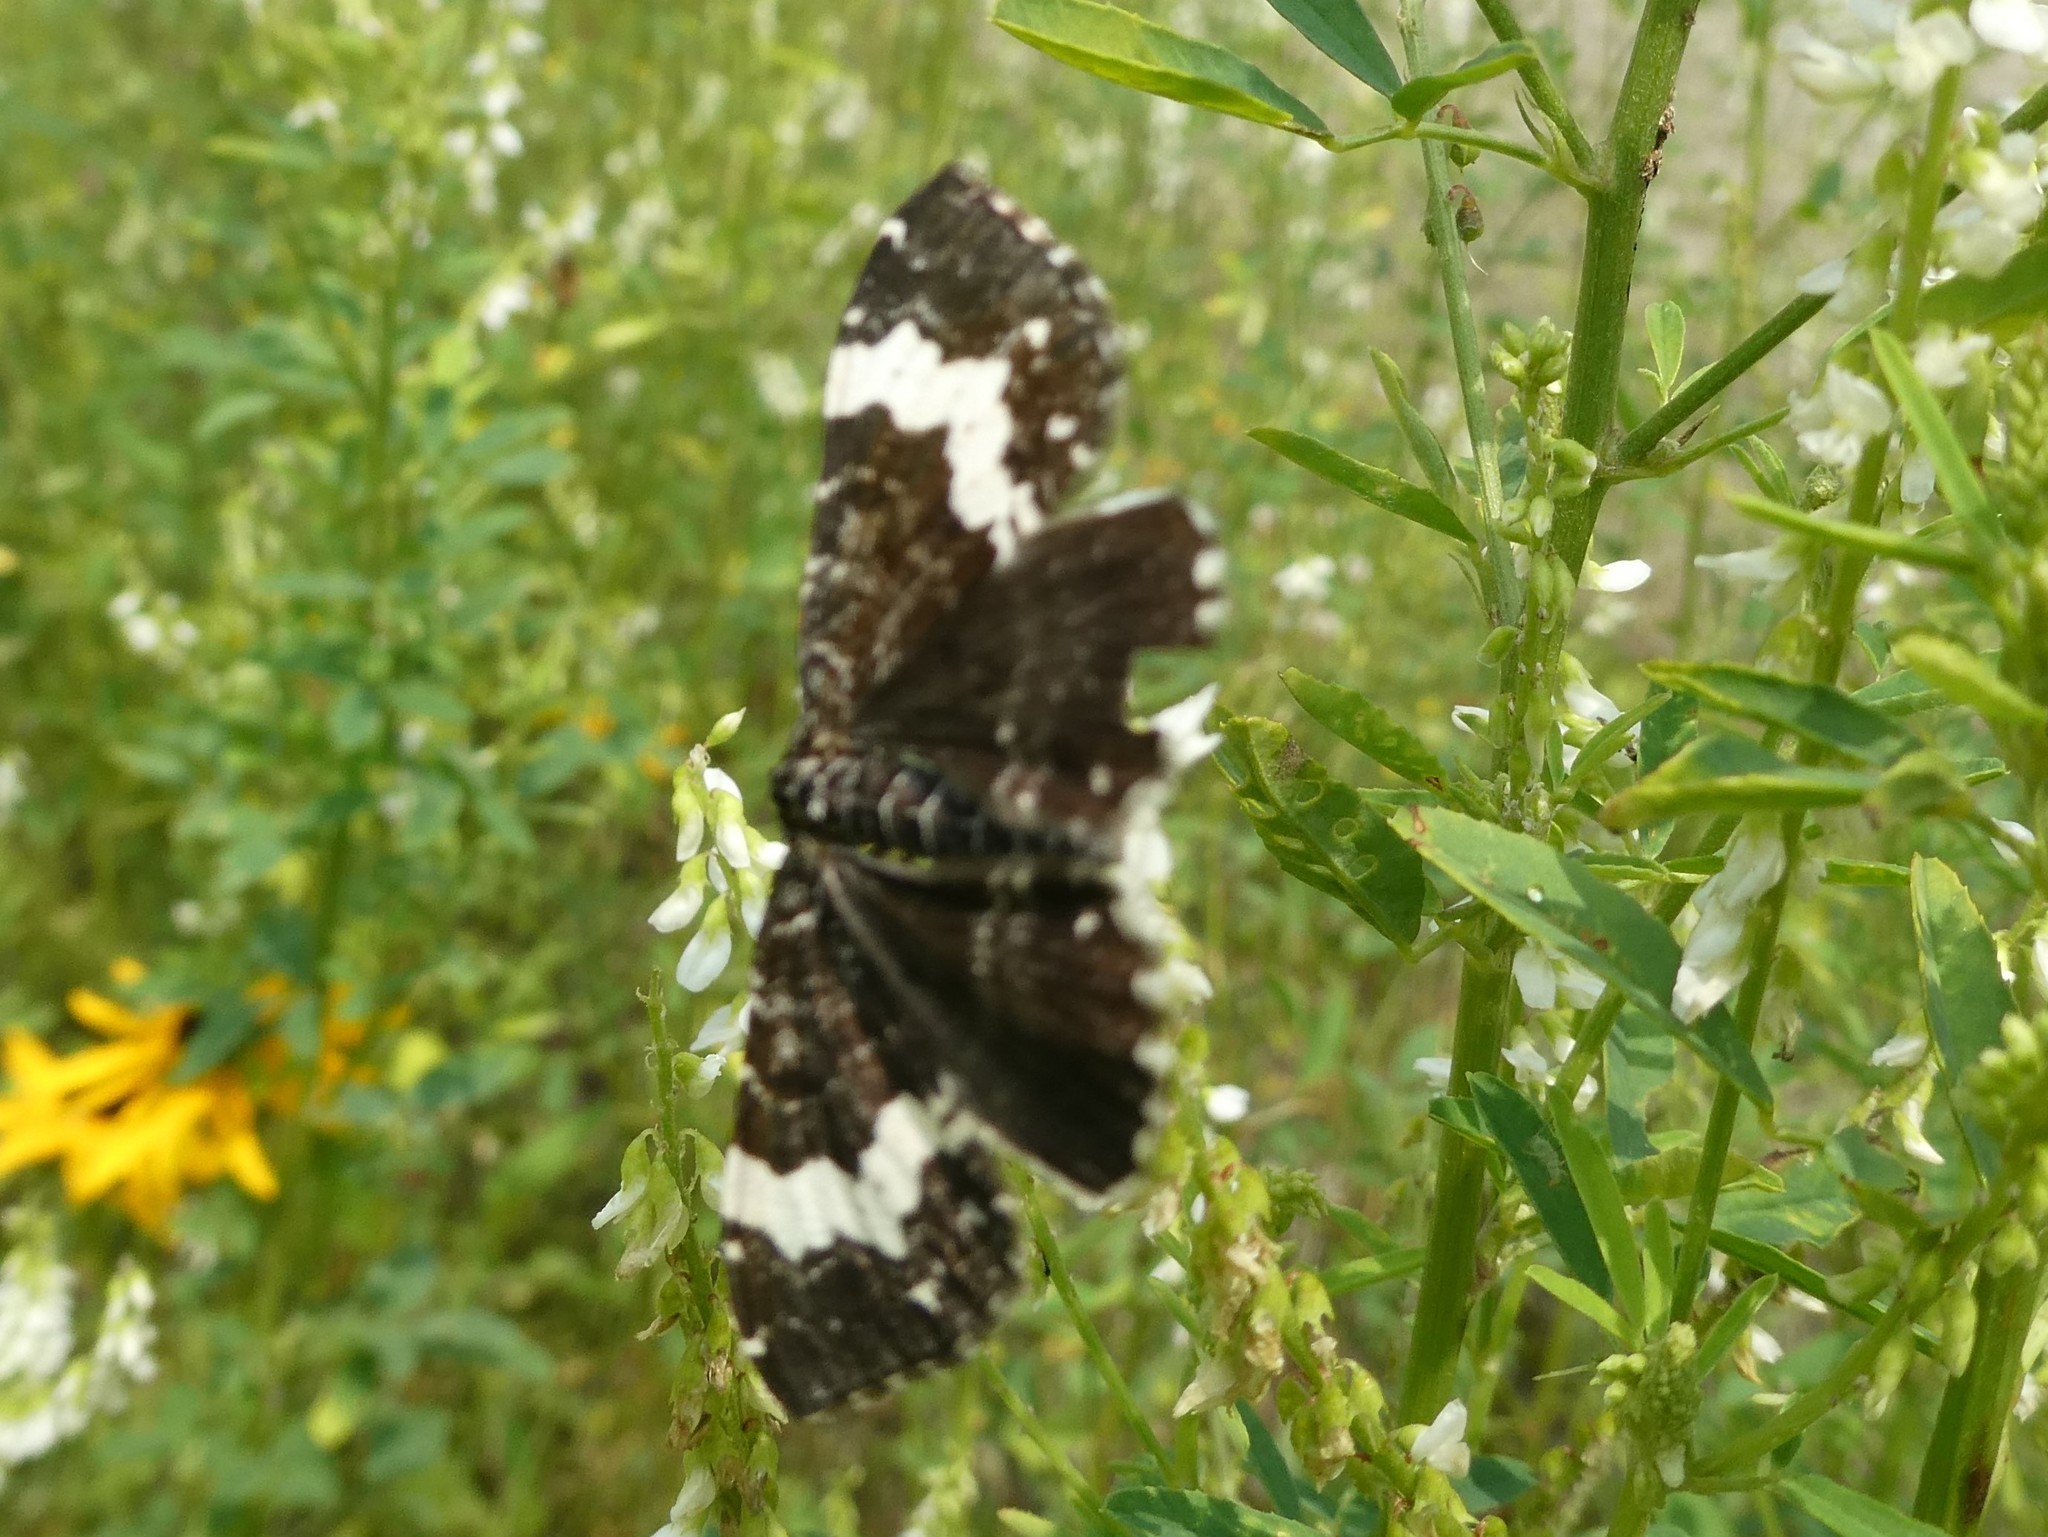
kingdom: Animalia
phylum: Arthropoda
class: Insecta
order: Lepidoptera
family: Geometridae
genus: Rheumaptera
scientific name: Rheumaptera
